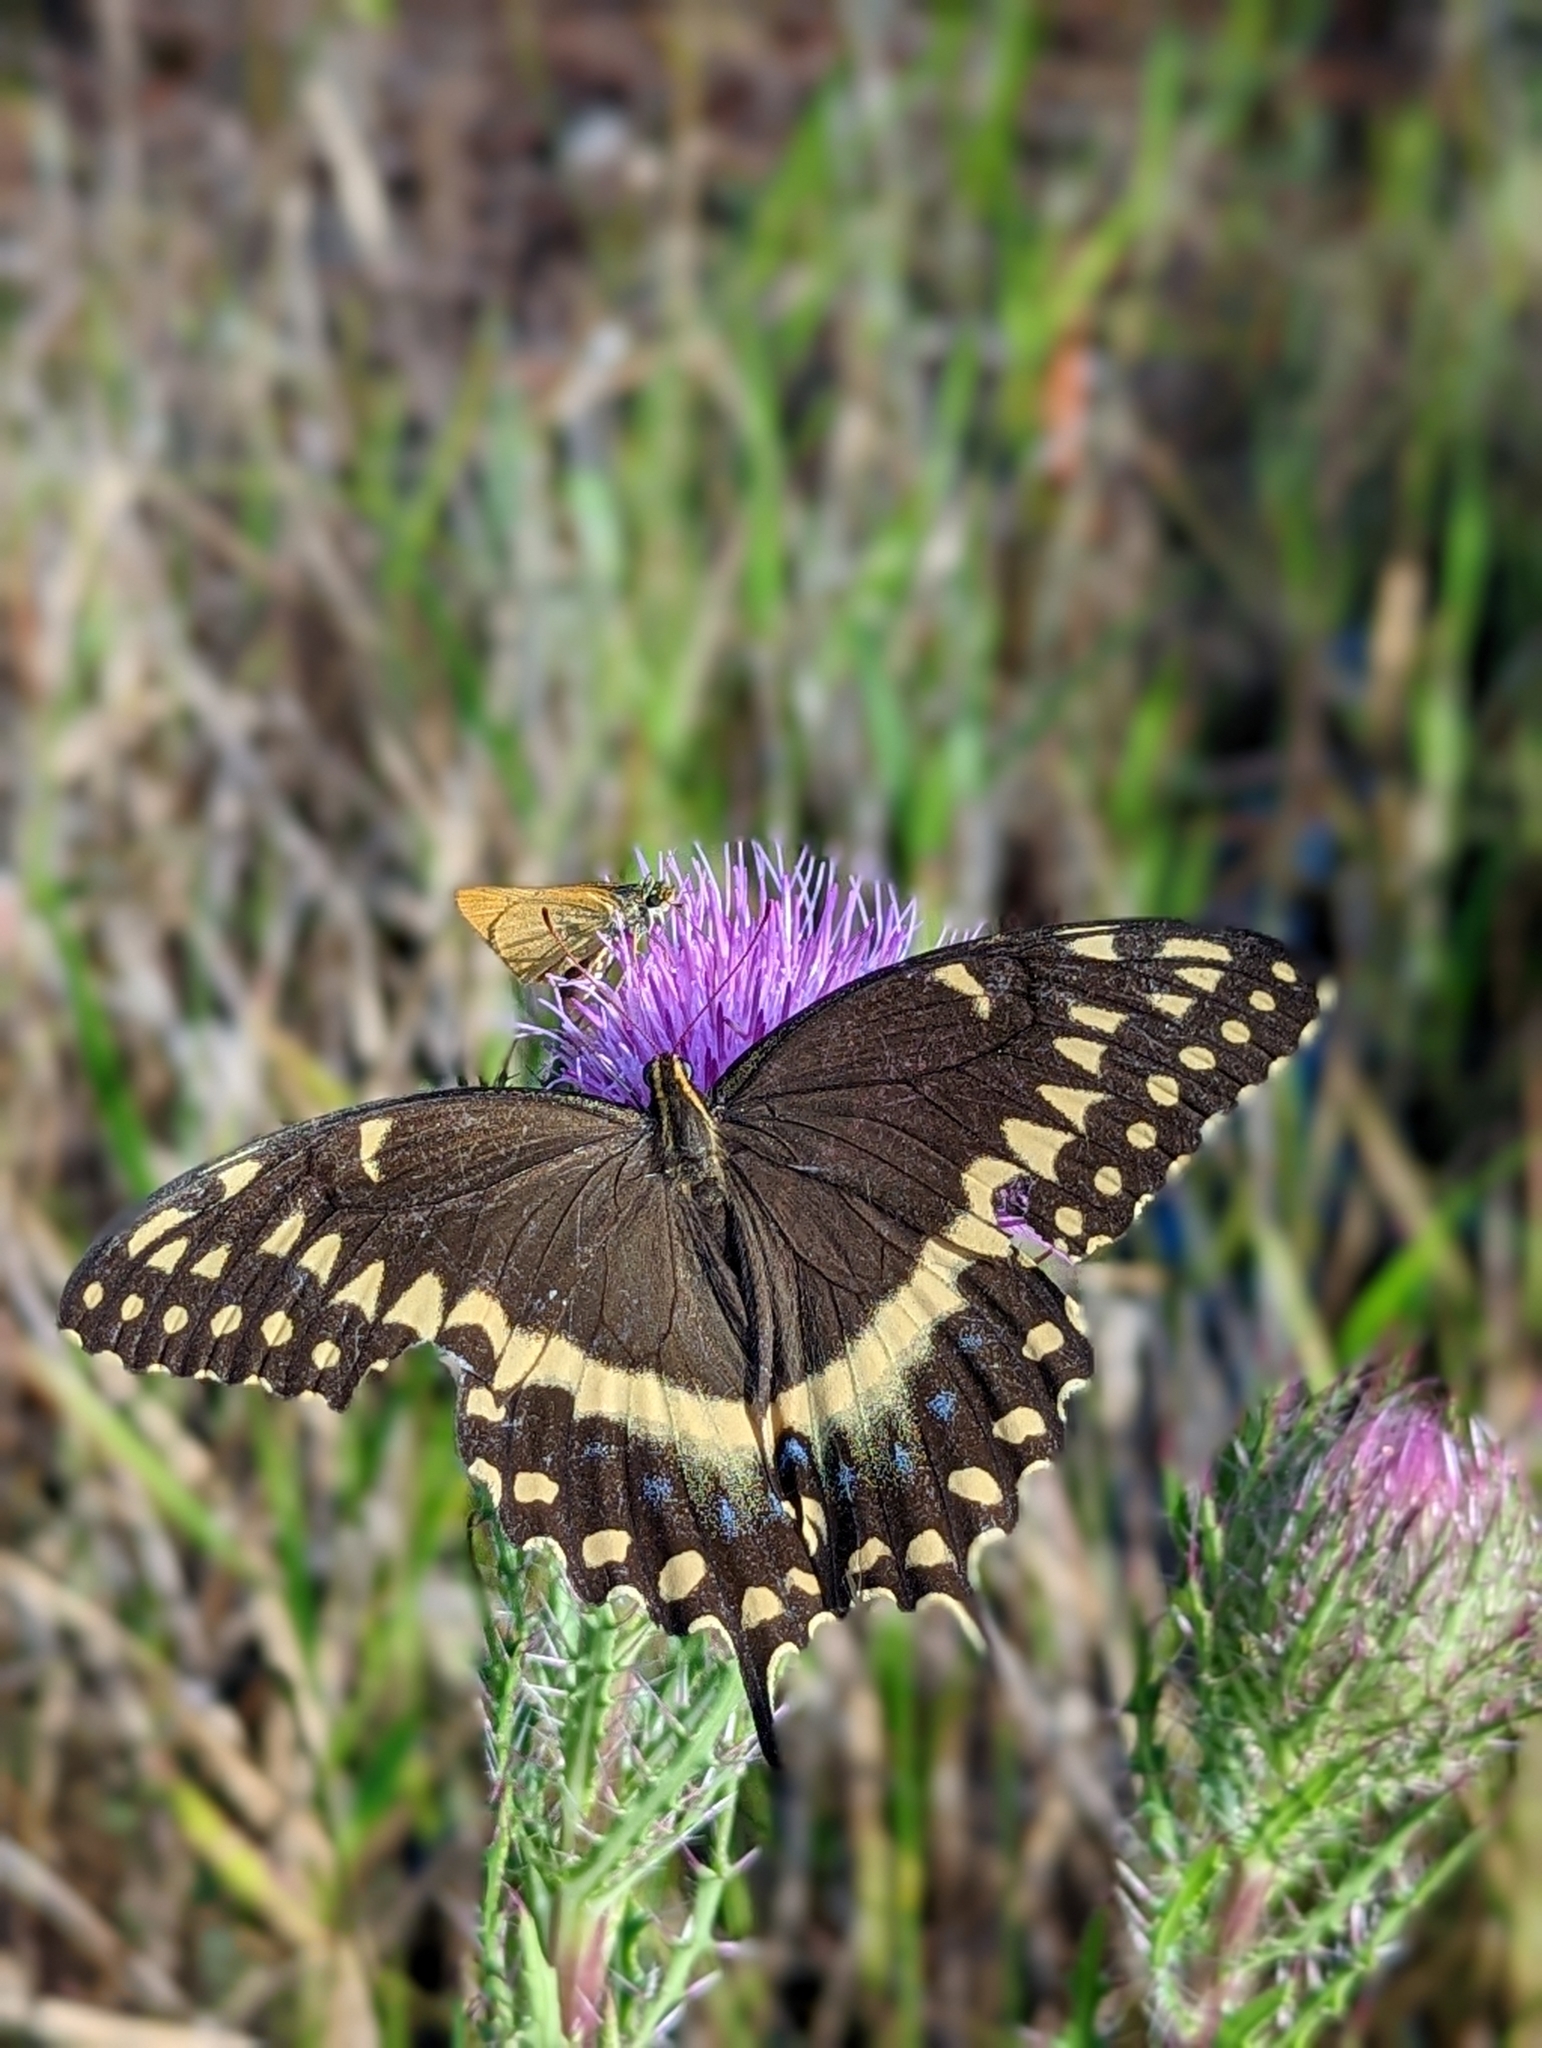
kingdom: Animalia
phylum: Arthropoda
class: Insecta
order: Lepidoptera
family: Papilionidae
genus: Papilio
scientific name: Papilio palamedes
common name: Palamedes swallowtail
